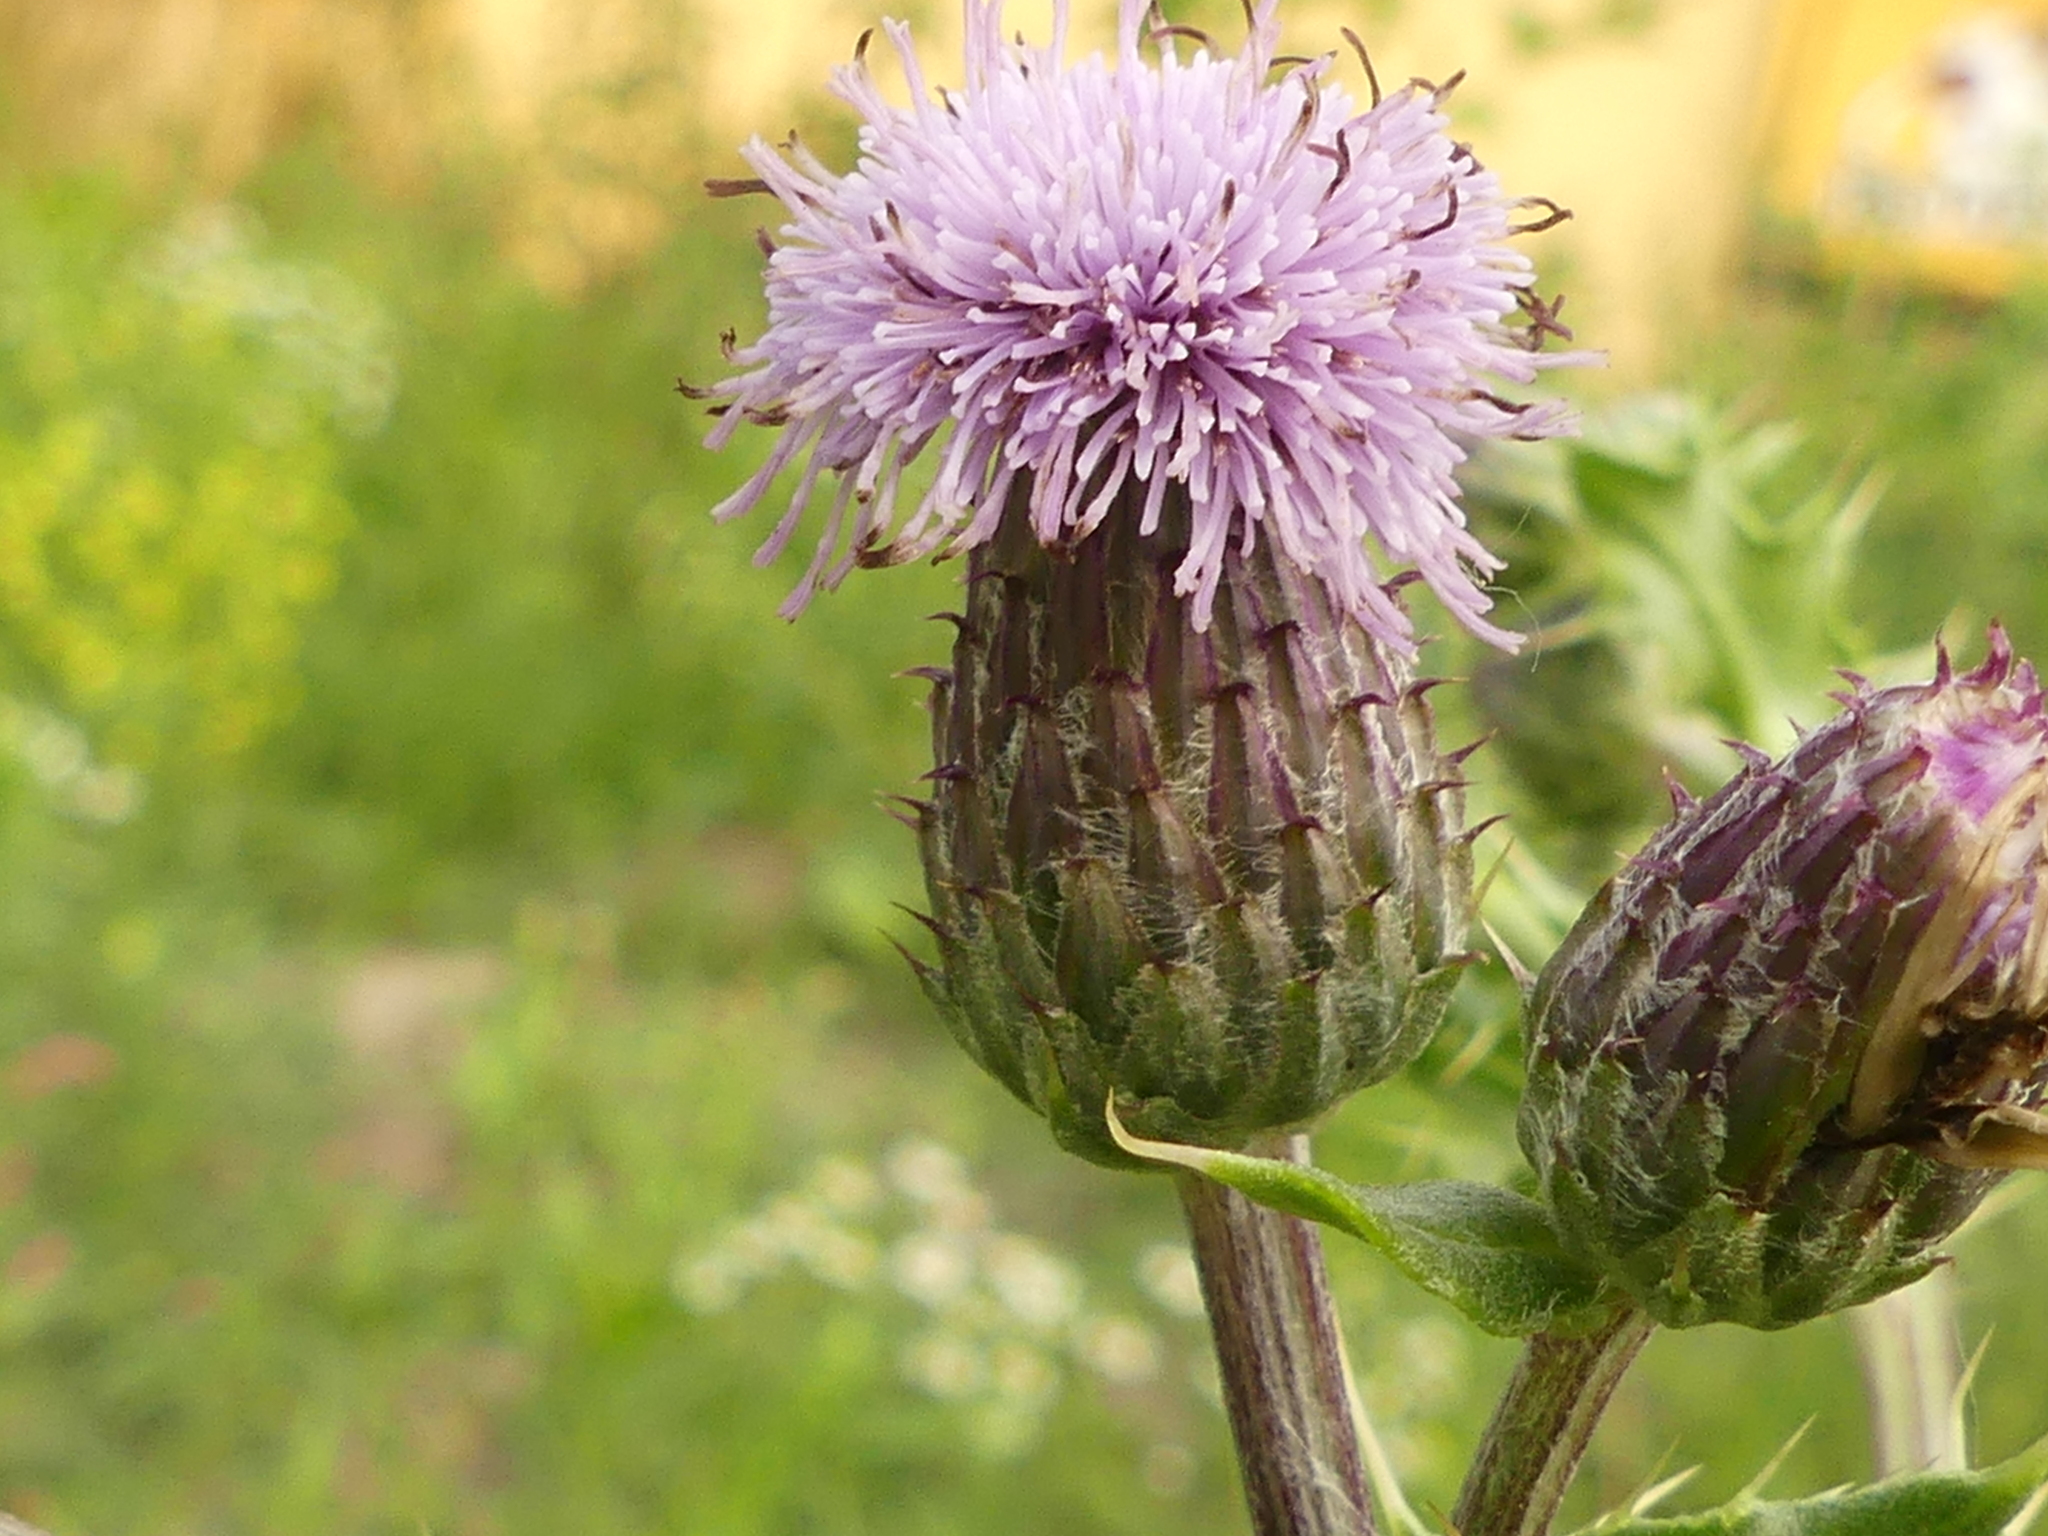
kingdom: Plantae
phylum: Tracheophyta
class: Magnoliopsida
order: Asterales
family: Asteraceae
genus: Cirsium
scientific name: Cirsium arvense
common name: Creeping thistle
